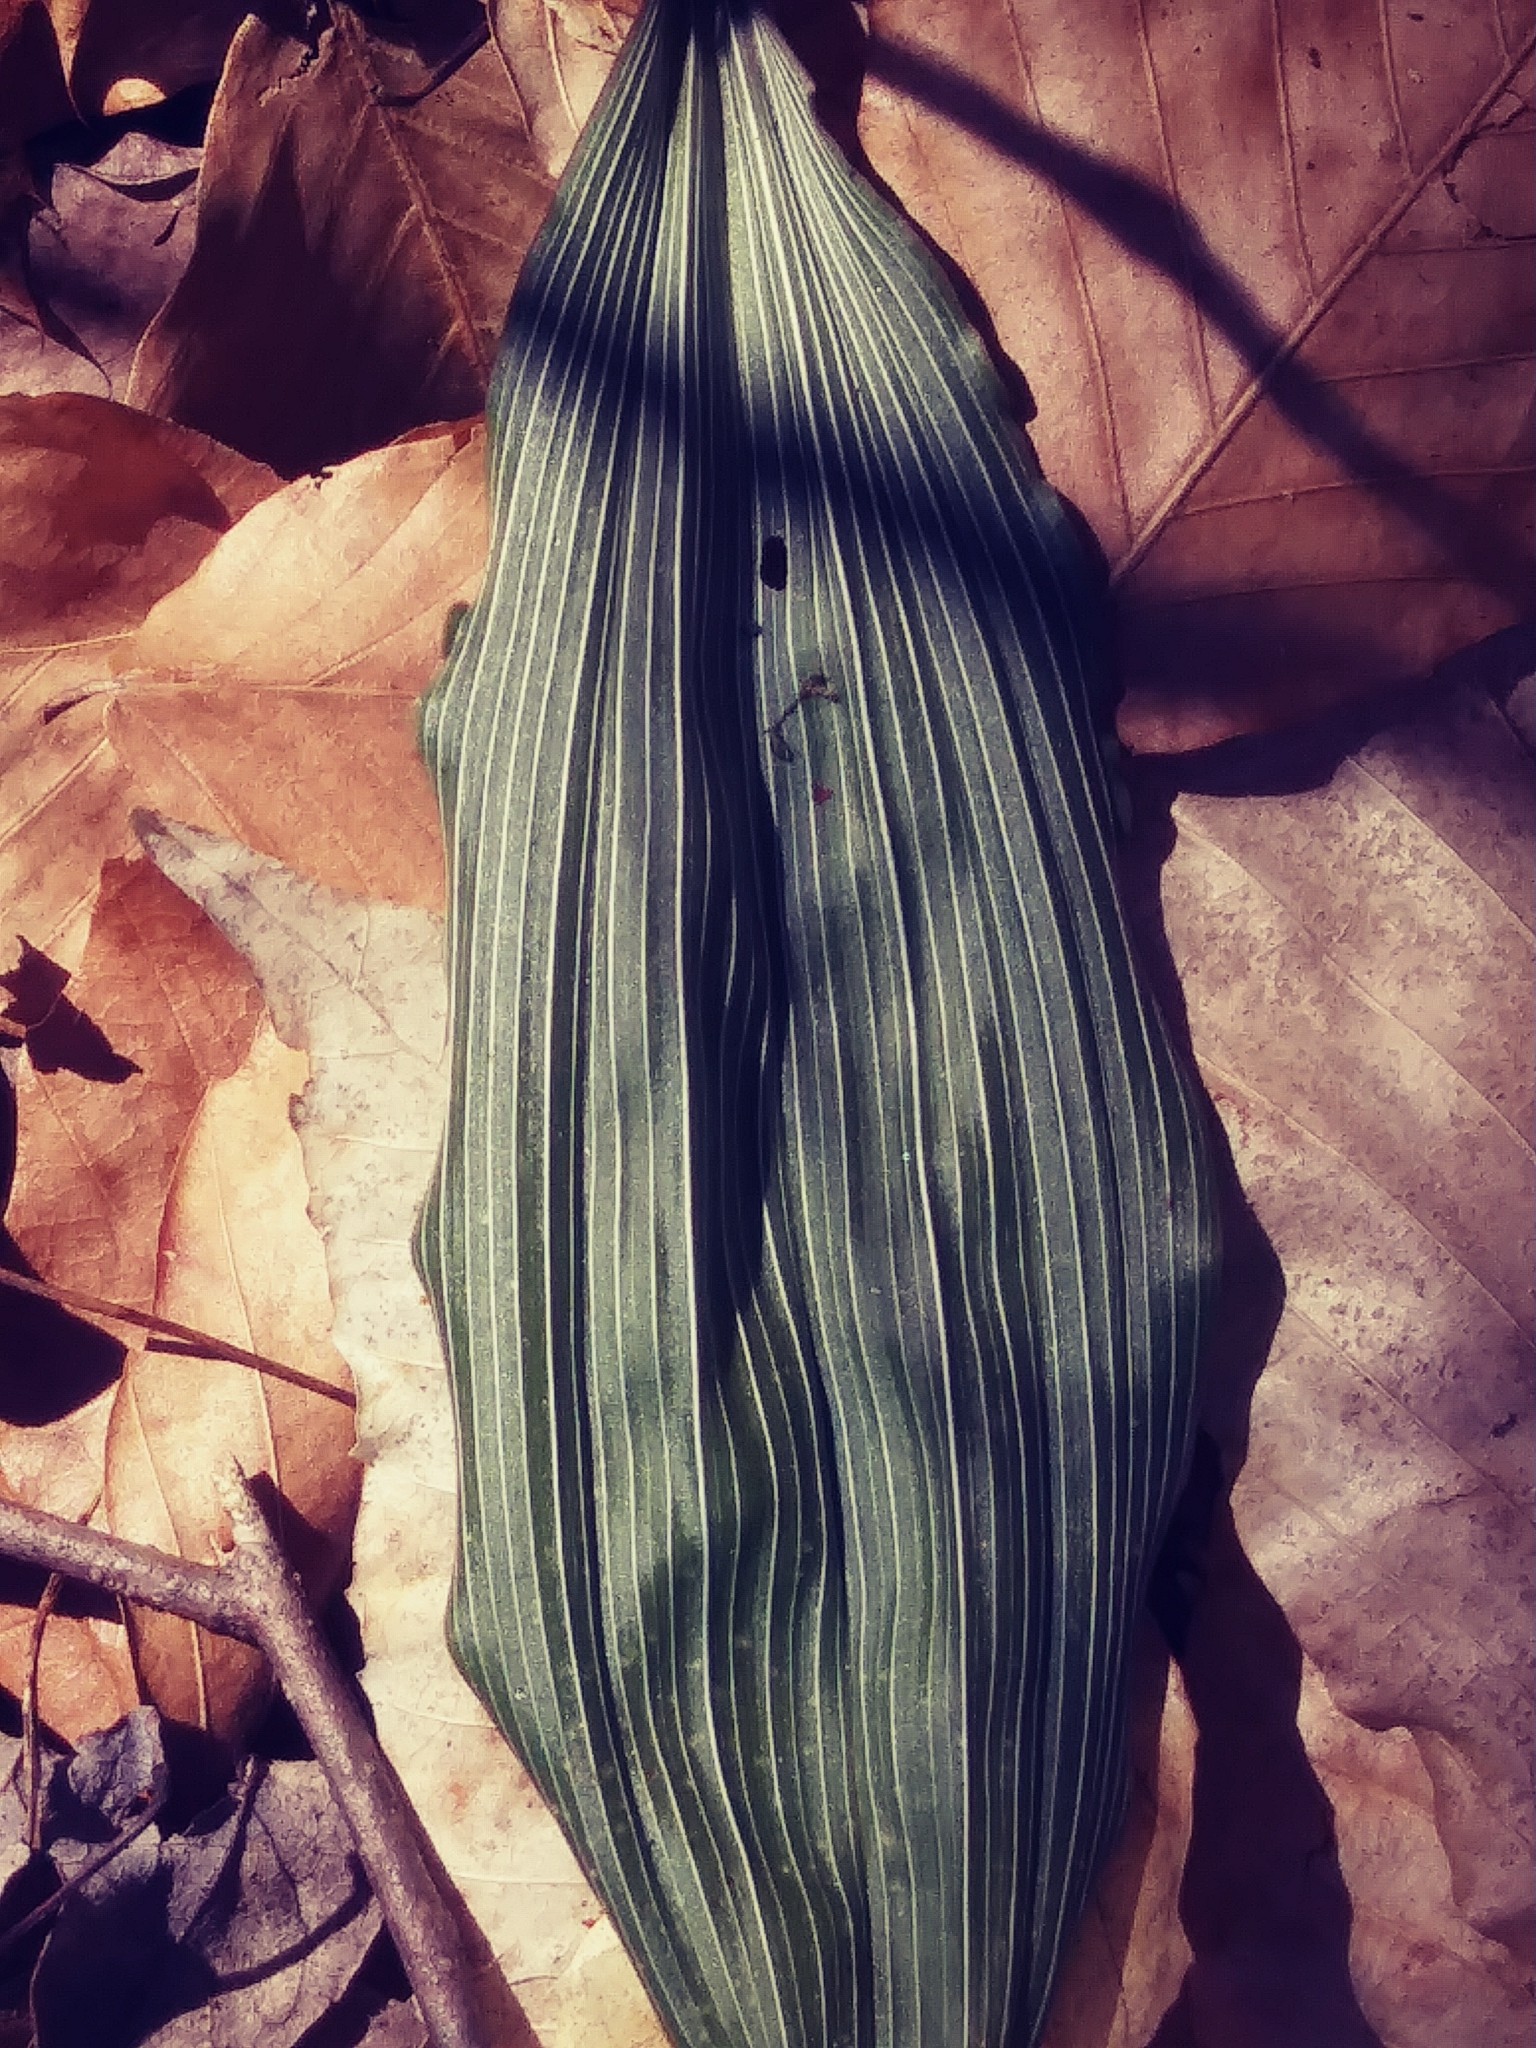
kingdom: Plantae
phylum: Tracheophyta
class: Liliopsida
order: Asparagales
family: Orchidaceae
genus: Aplectrum
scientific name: Aplectrum hyemale
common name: Adam-and-eve
